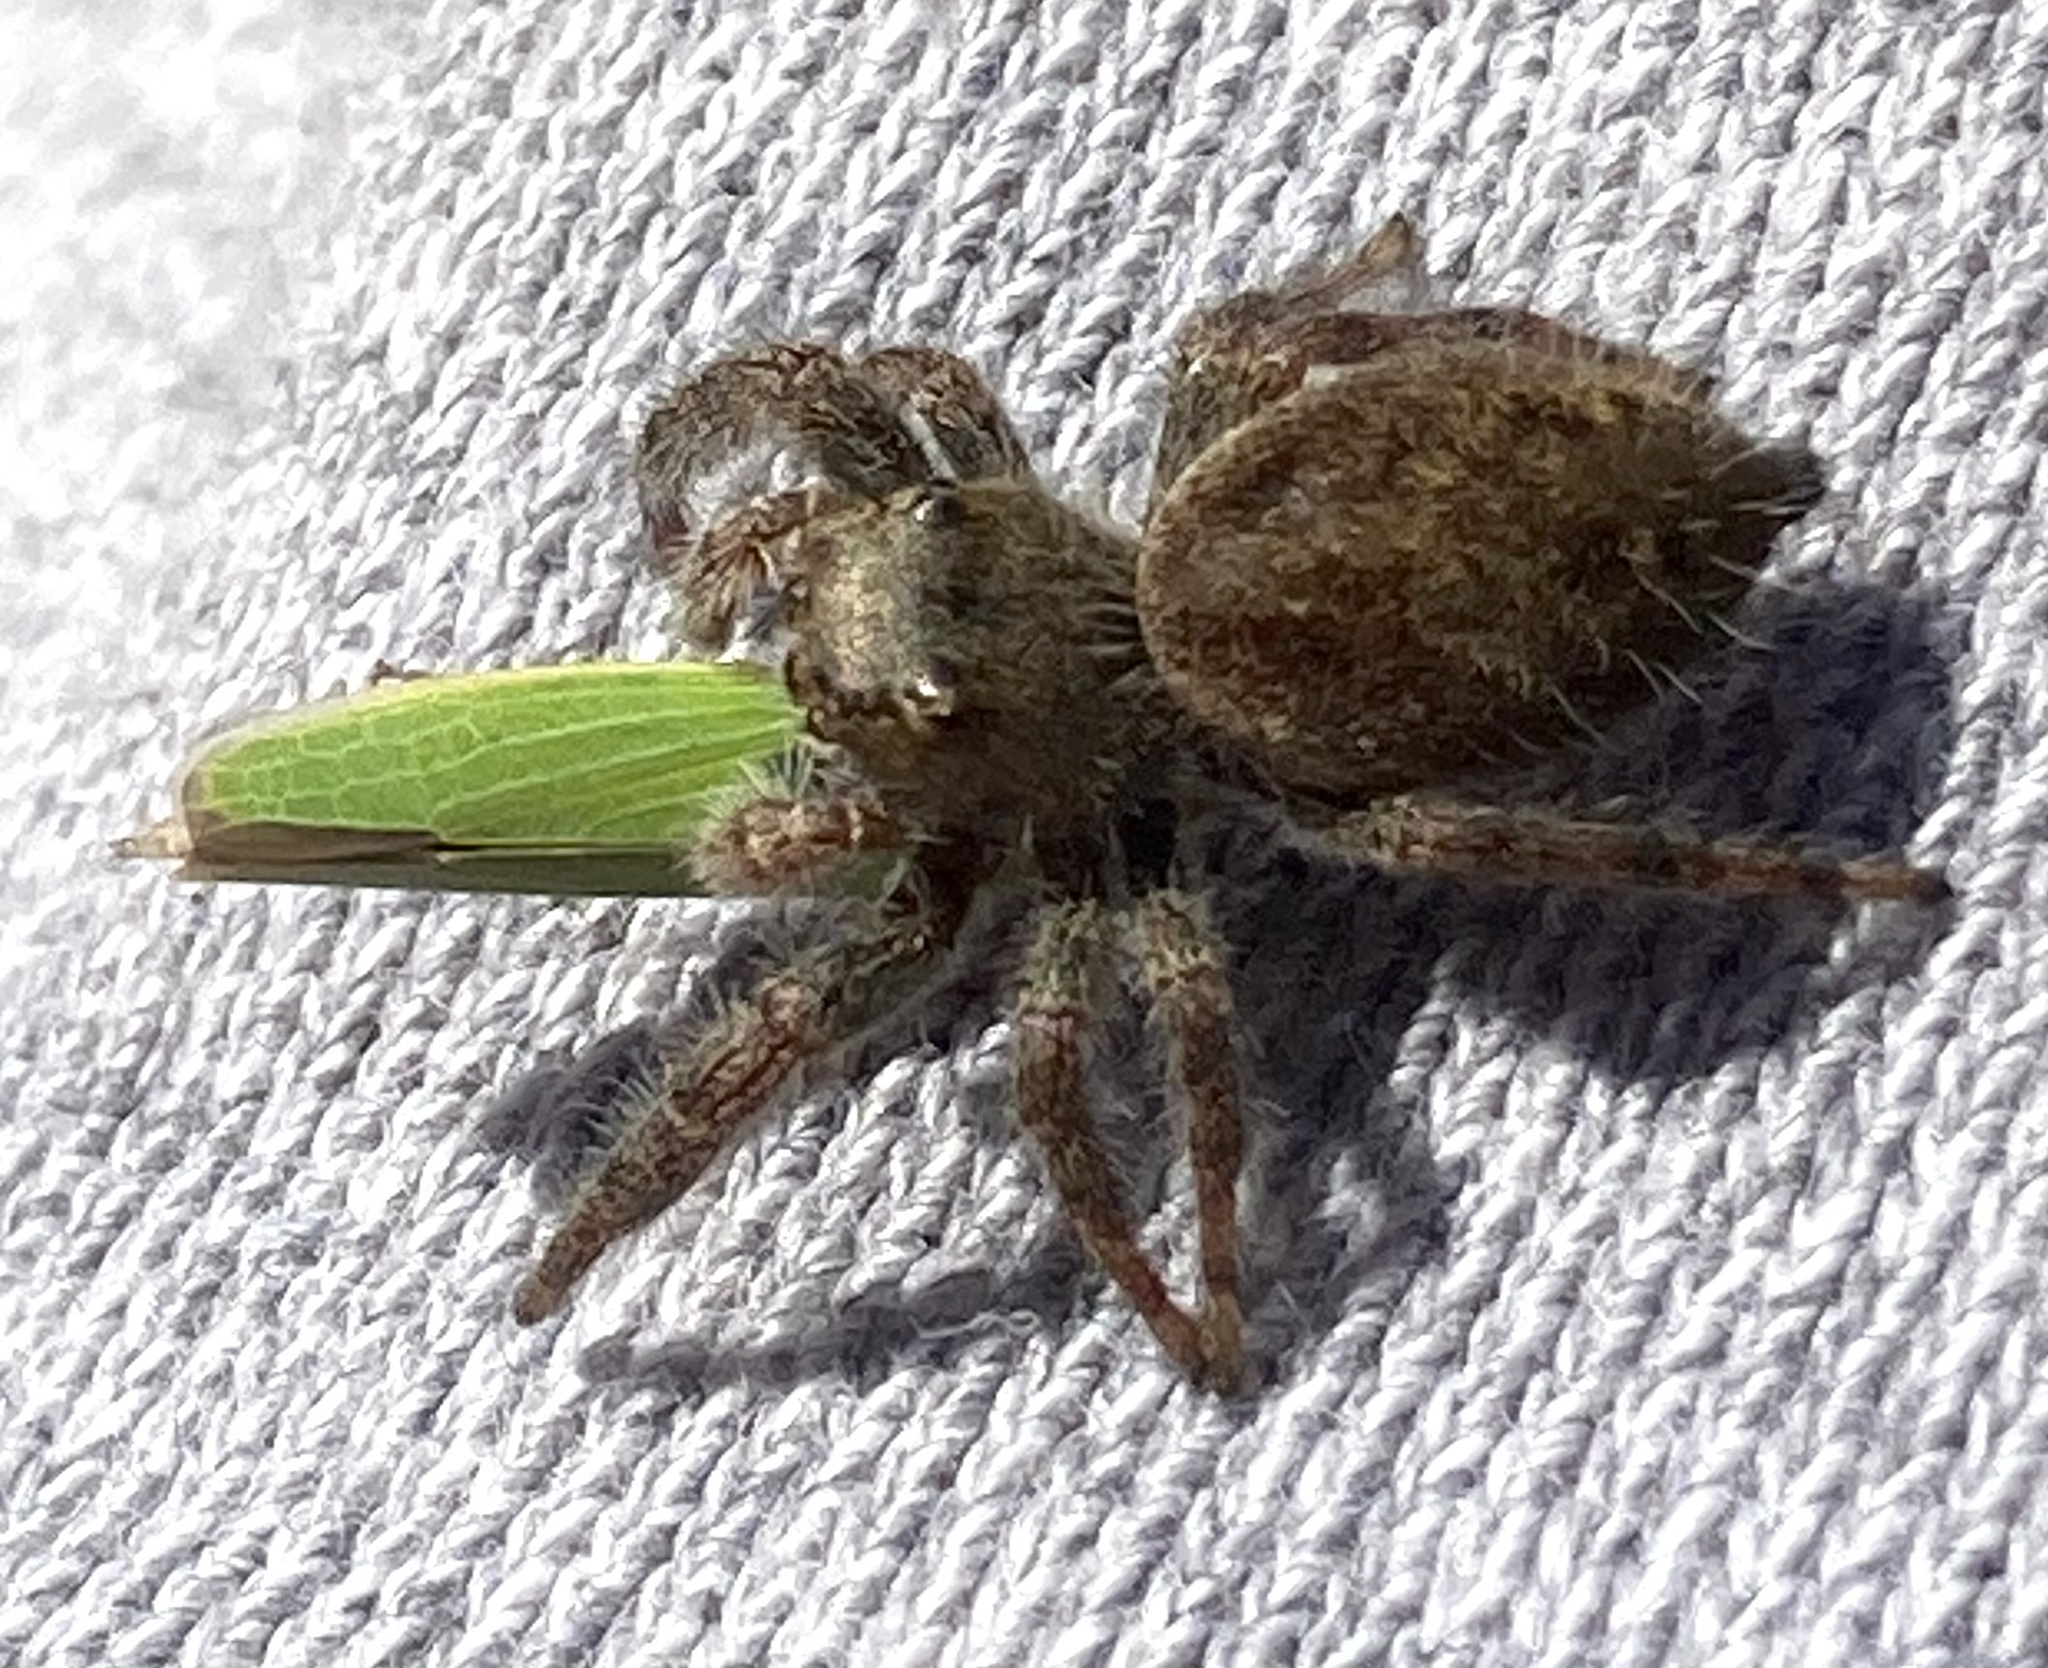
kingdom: Animalia
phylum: Arthropoda
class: Arachnida
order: Araneae
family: Salticidae
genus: Phidippus
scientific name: Phidippus princeps
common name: Grayish jumping spider
